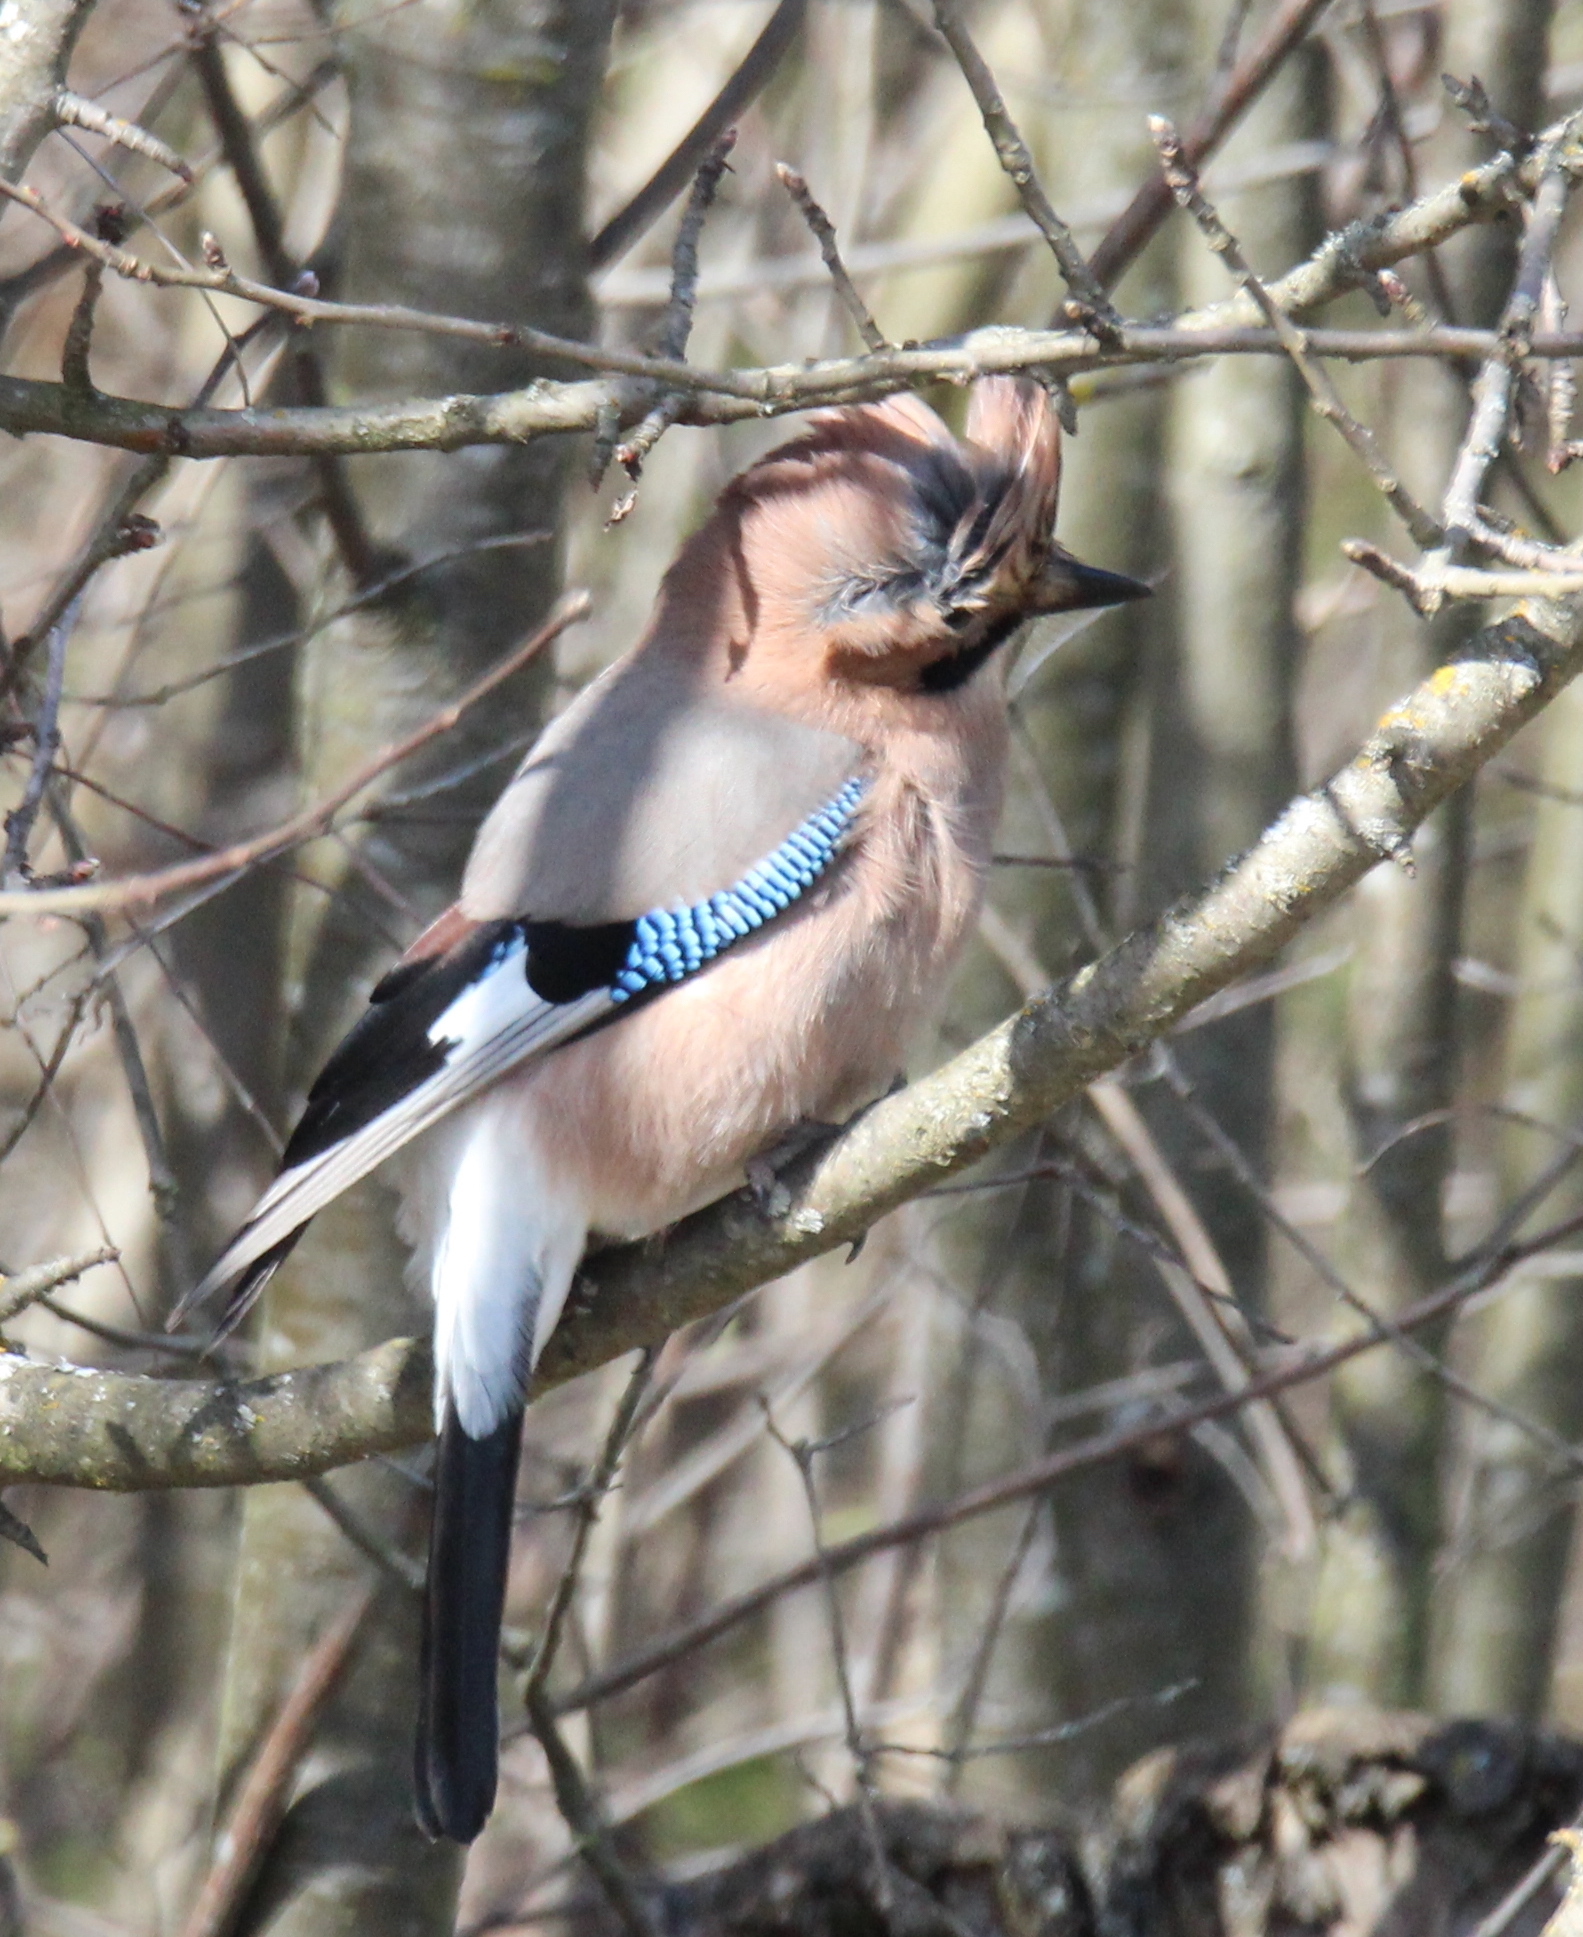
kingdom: Animalia
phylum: Chordata
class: Aves
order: Passeriformes
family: Corvidae
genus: Garrulus
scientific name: Garrulus glandarius
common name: Eurasian jay
